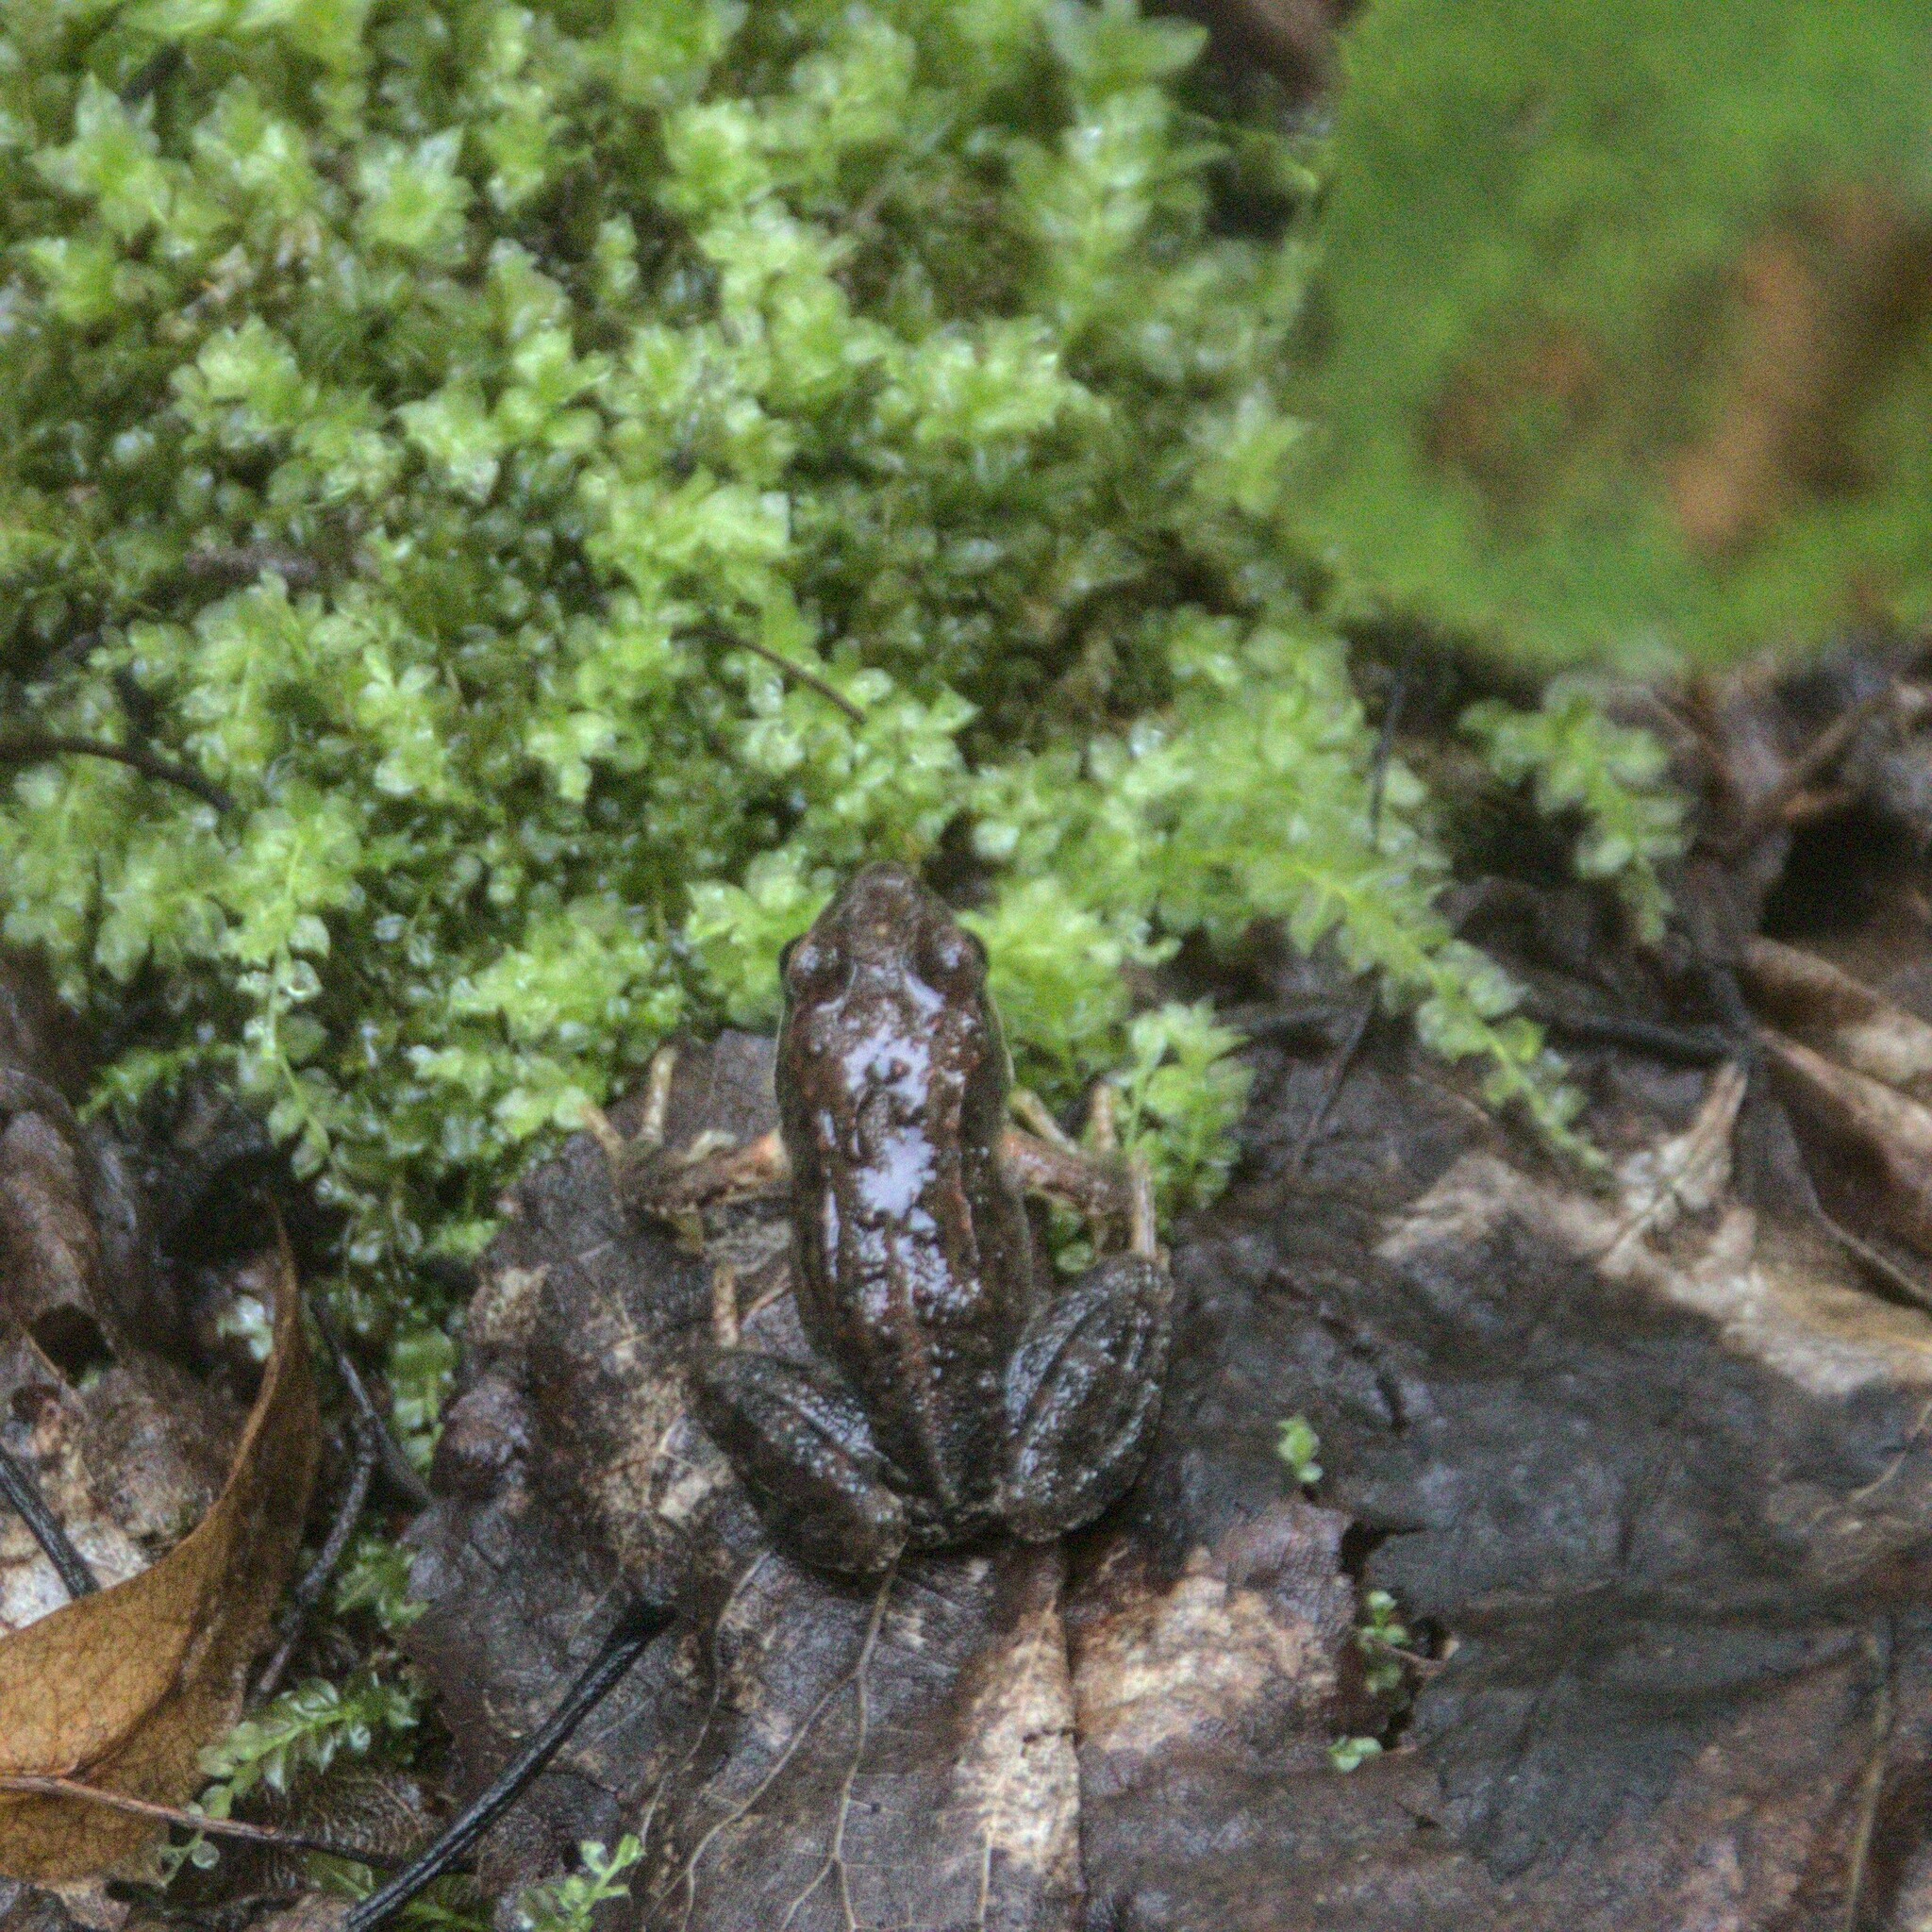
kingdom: Animalia
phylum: Chordata
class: Amphibia
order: Anura
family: Ranidae
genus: Rana
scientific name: Rana arvalis
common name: Moor frog
